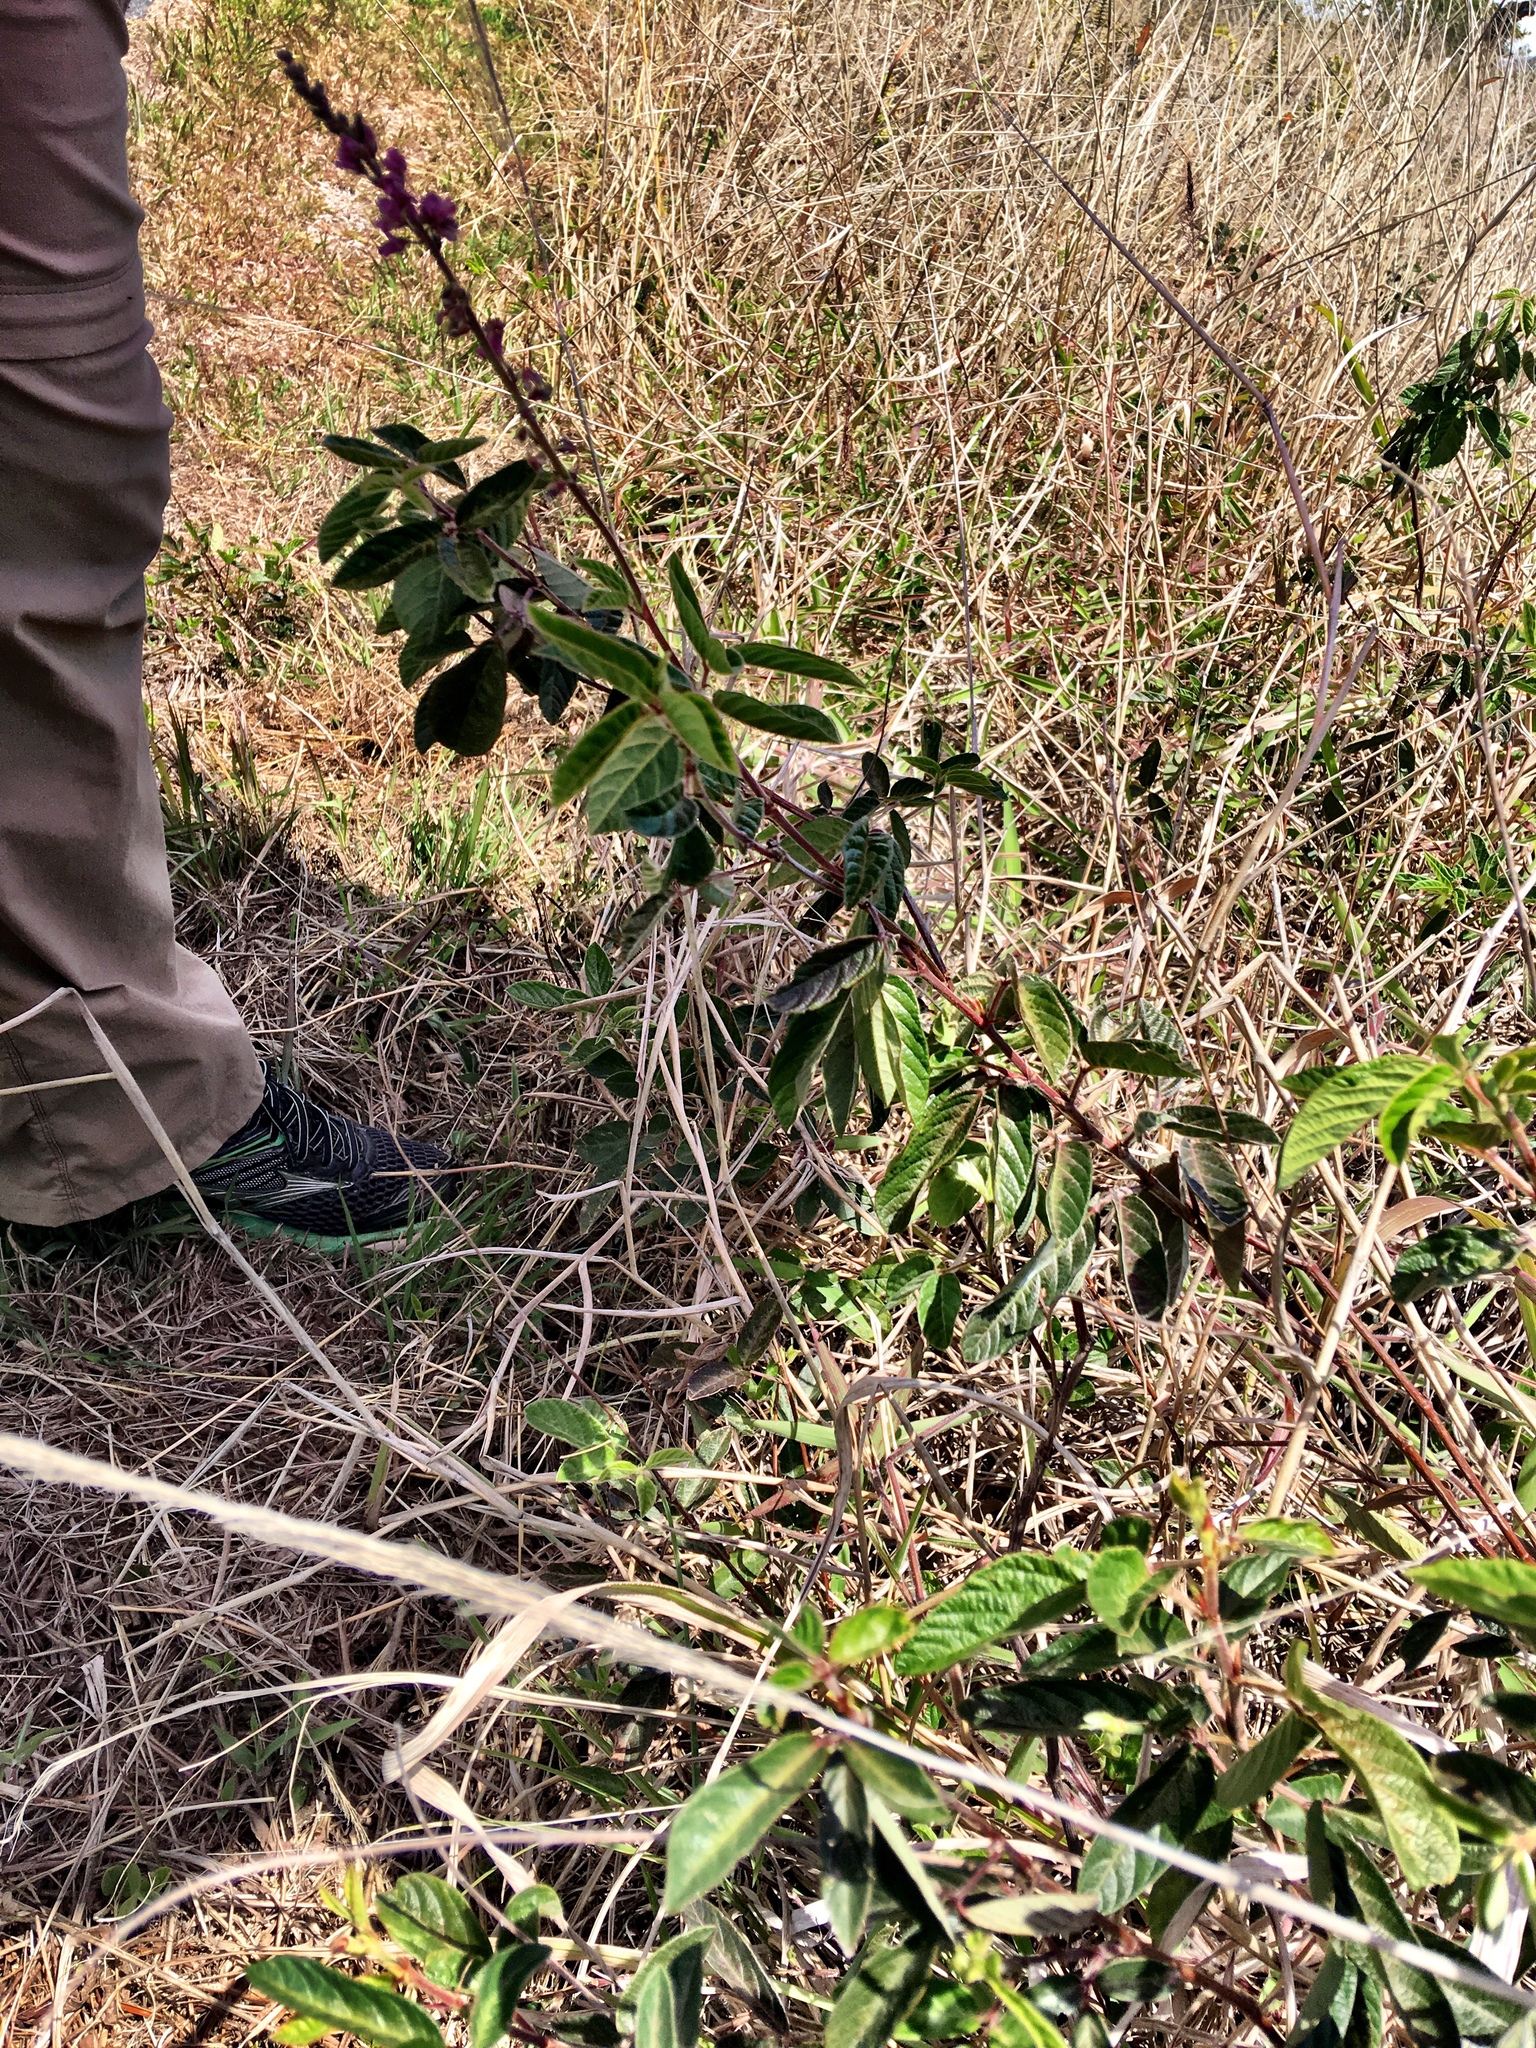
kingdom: Plantae
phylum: Tracheophyta
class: Magnoliopsida
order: Fabales
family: Fabaceae
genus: Desmodium
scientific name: Desmodium incanum
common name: Tickclover
